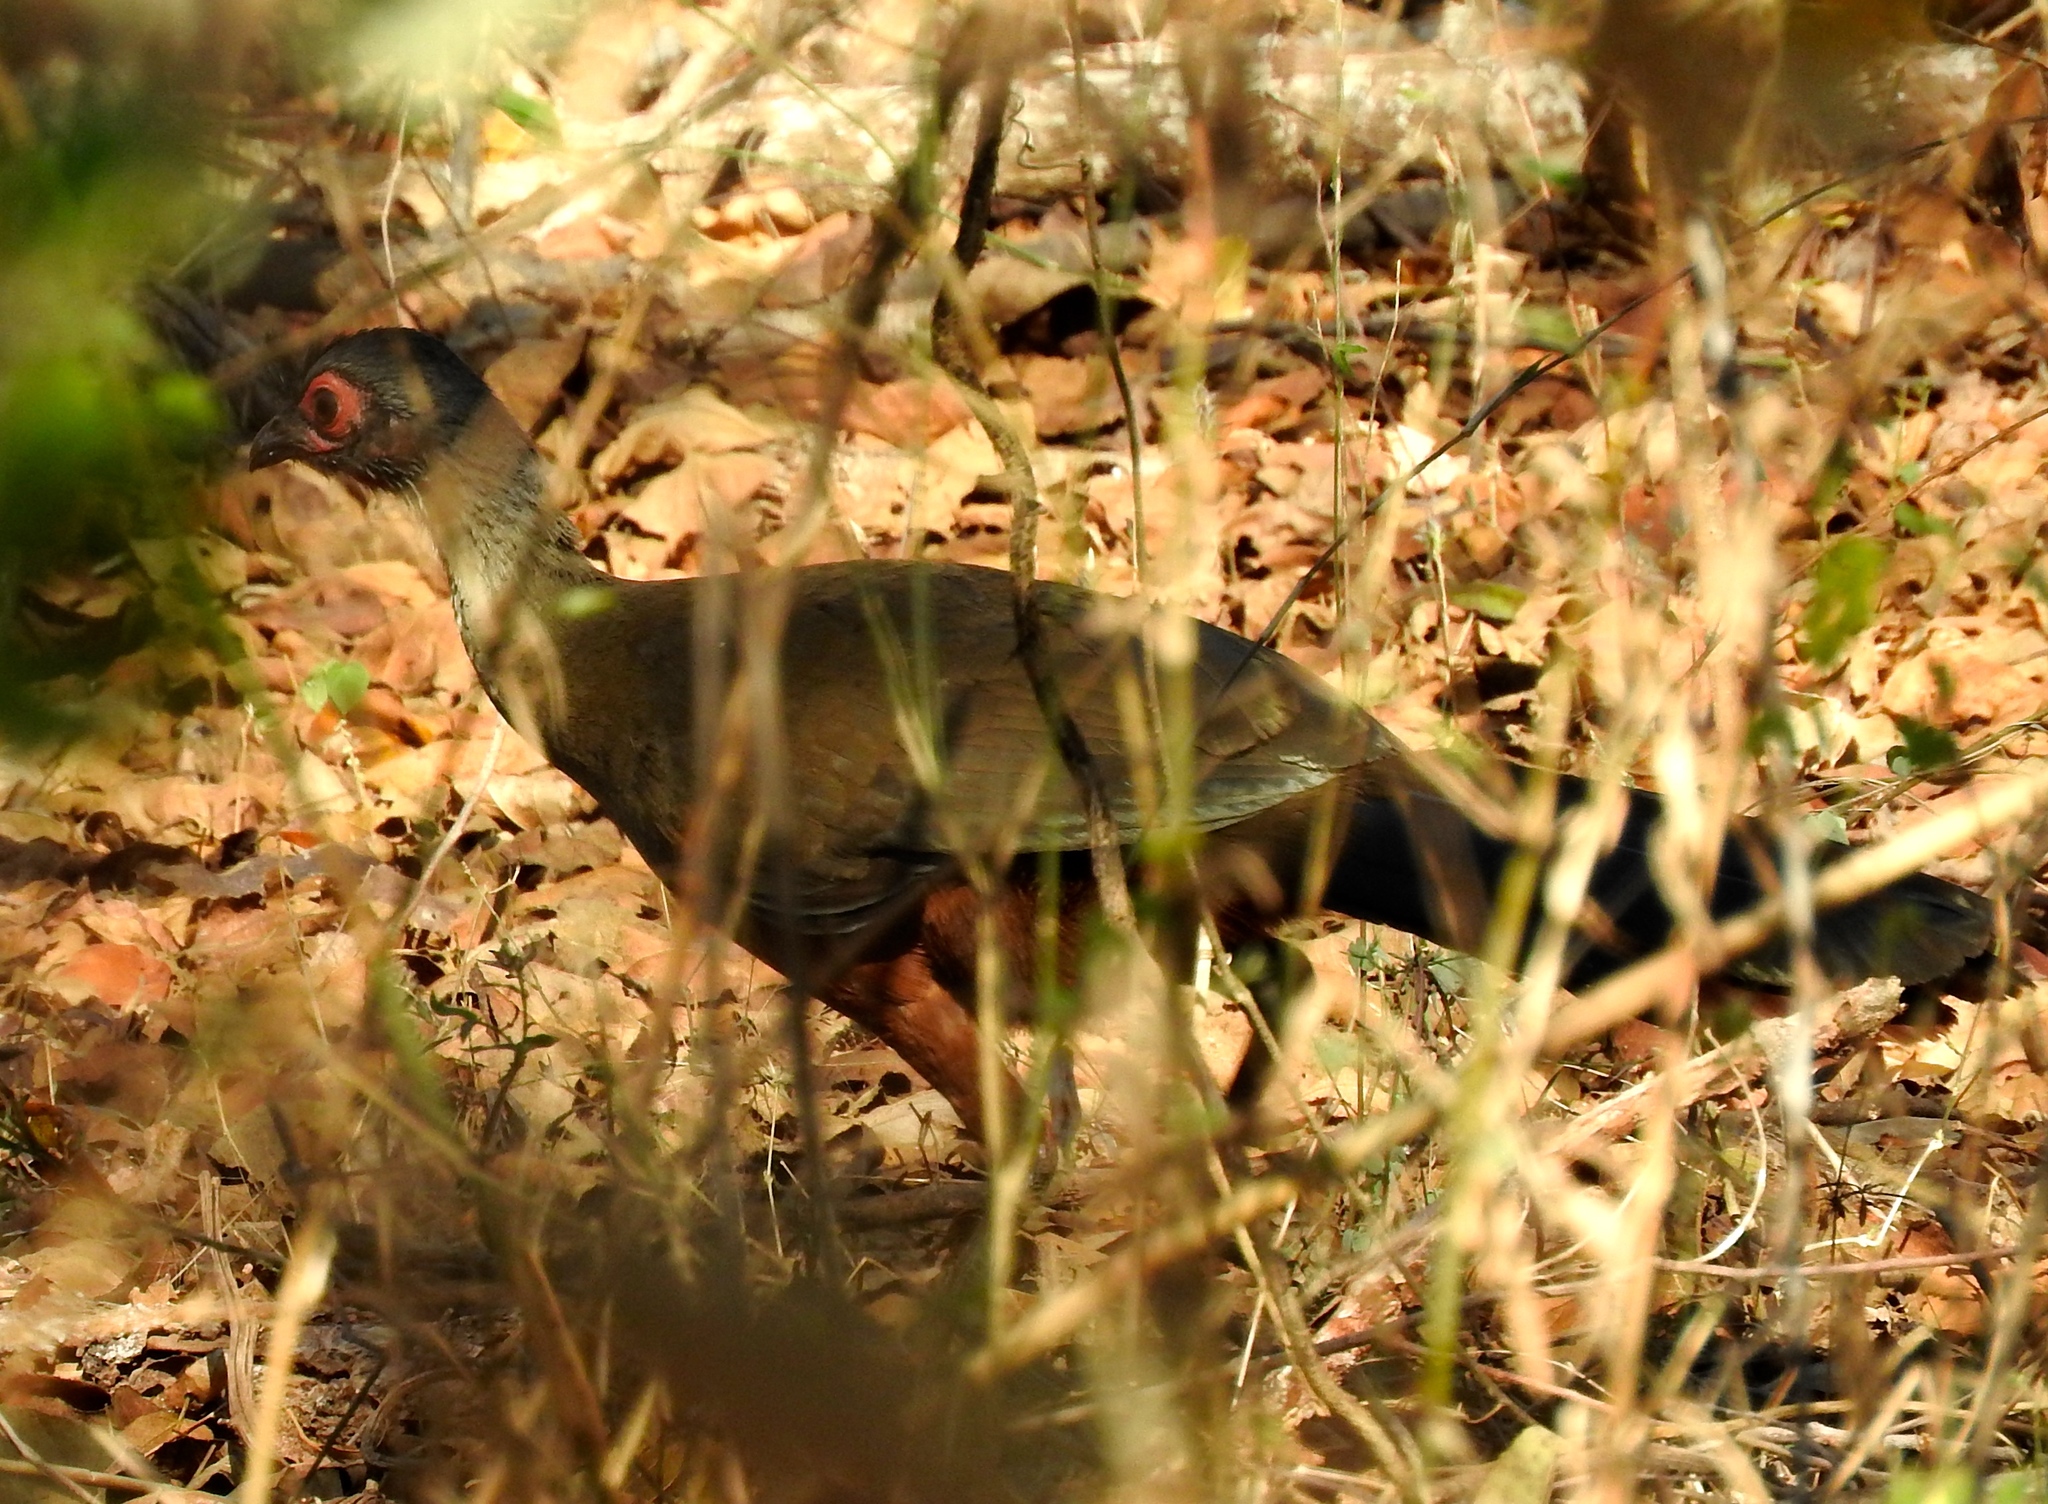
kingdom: Animalia
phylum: Chordata
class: Aves
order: Galliformes
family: Cracidae
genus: Ortalis
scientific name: Ortalis wagleri
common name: Rufous-bellied chachalaca
